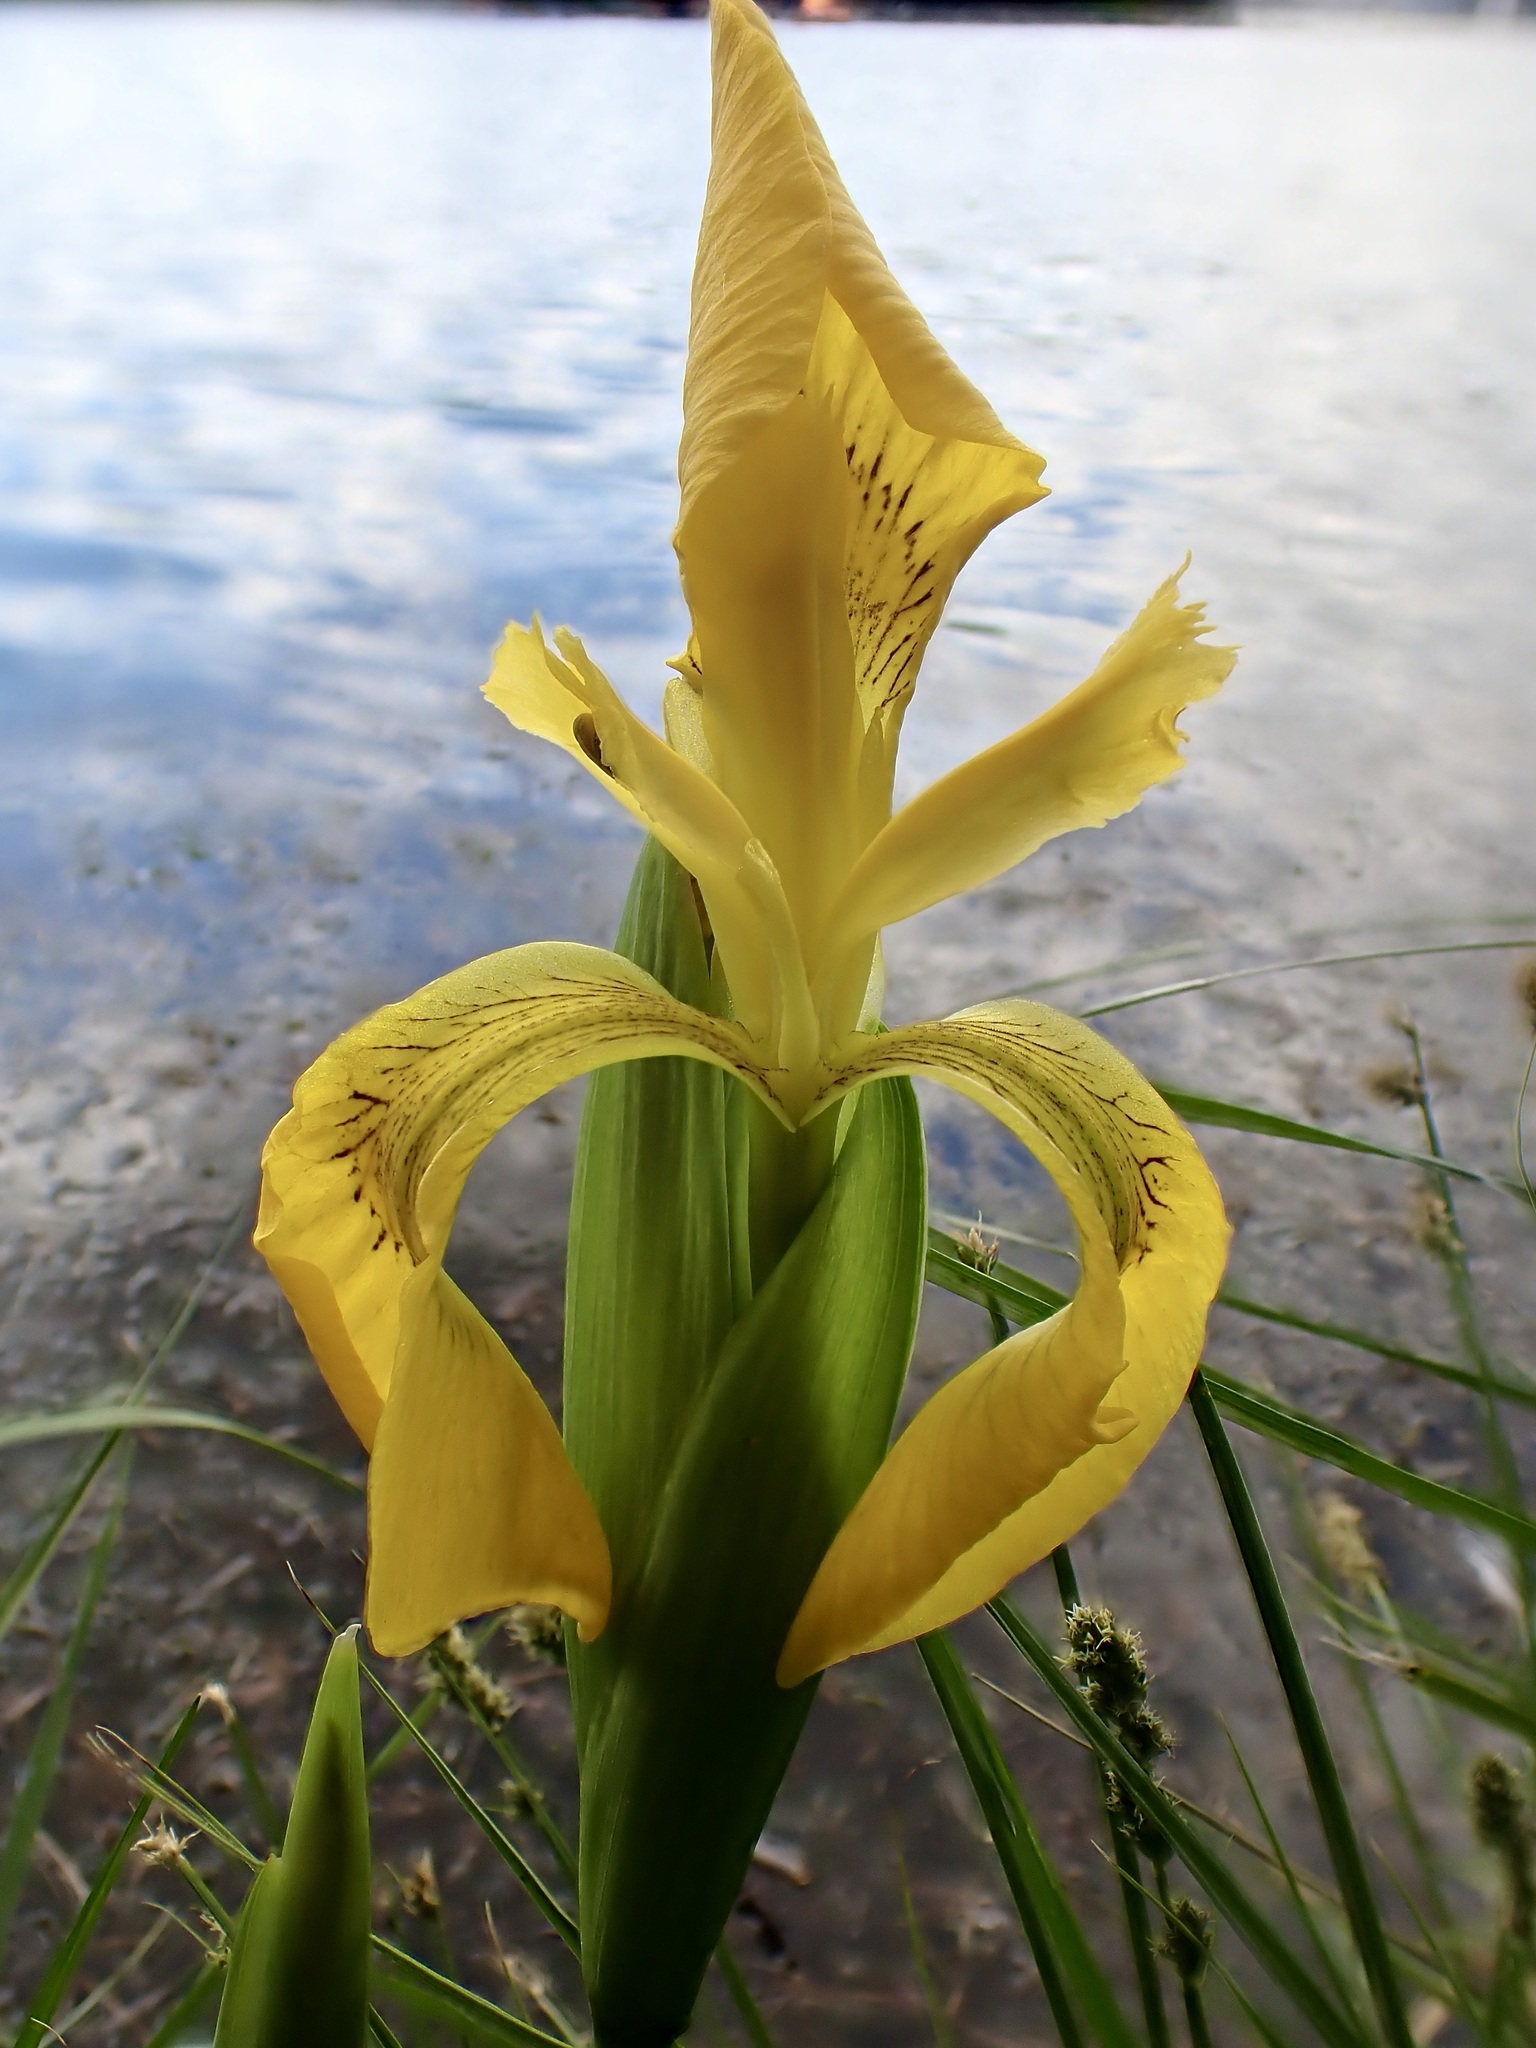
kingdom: Plantae
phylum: Tracheophyta
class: Liliopsida
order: Asparagales
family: Iridaceae
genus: Iris
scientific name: Iris pseudacorus
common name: Yellow flag
